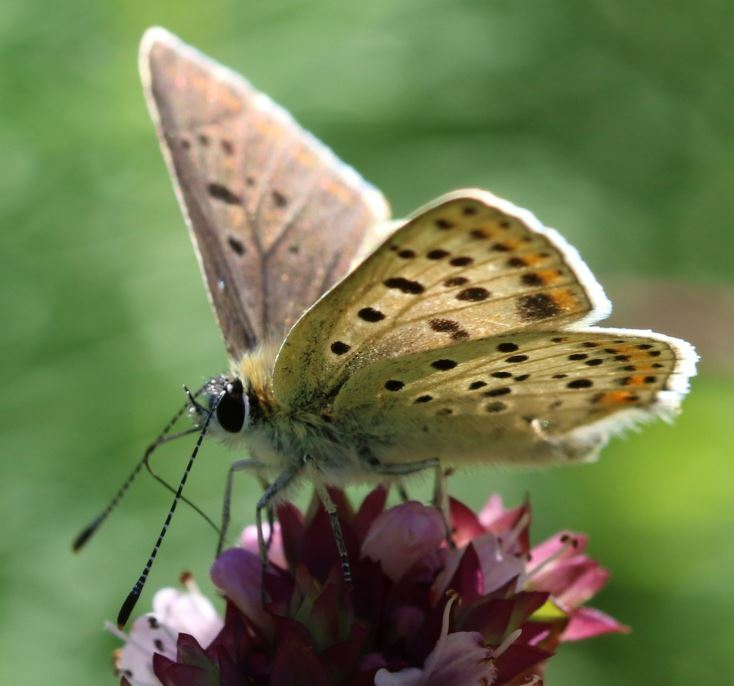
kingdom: Animalia
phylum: Arthropoda
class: Insecta
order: Lepidoptera
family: Lycaenidae
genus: Loweia
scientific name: Loweia tityrus
